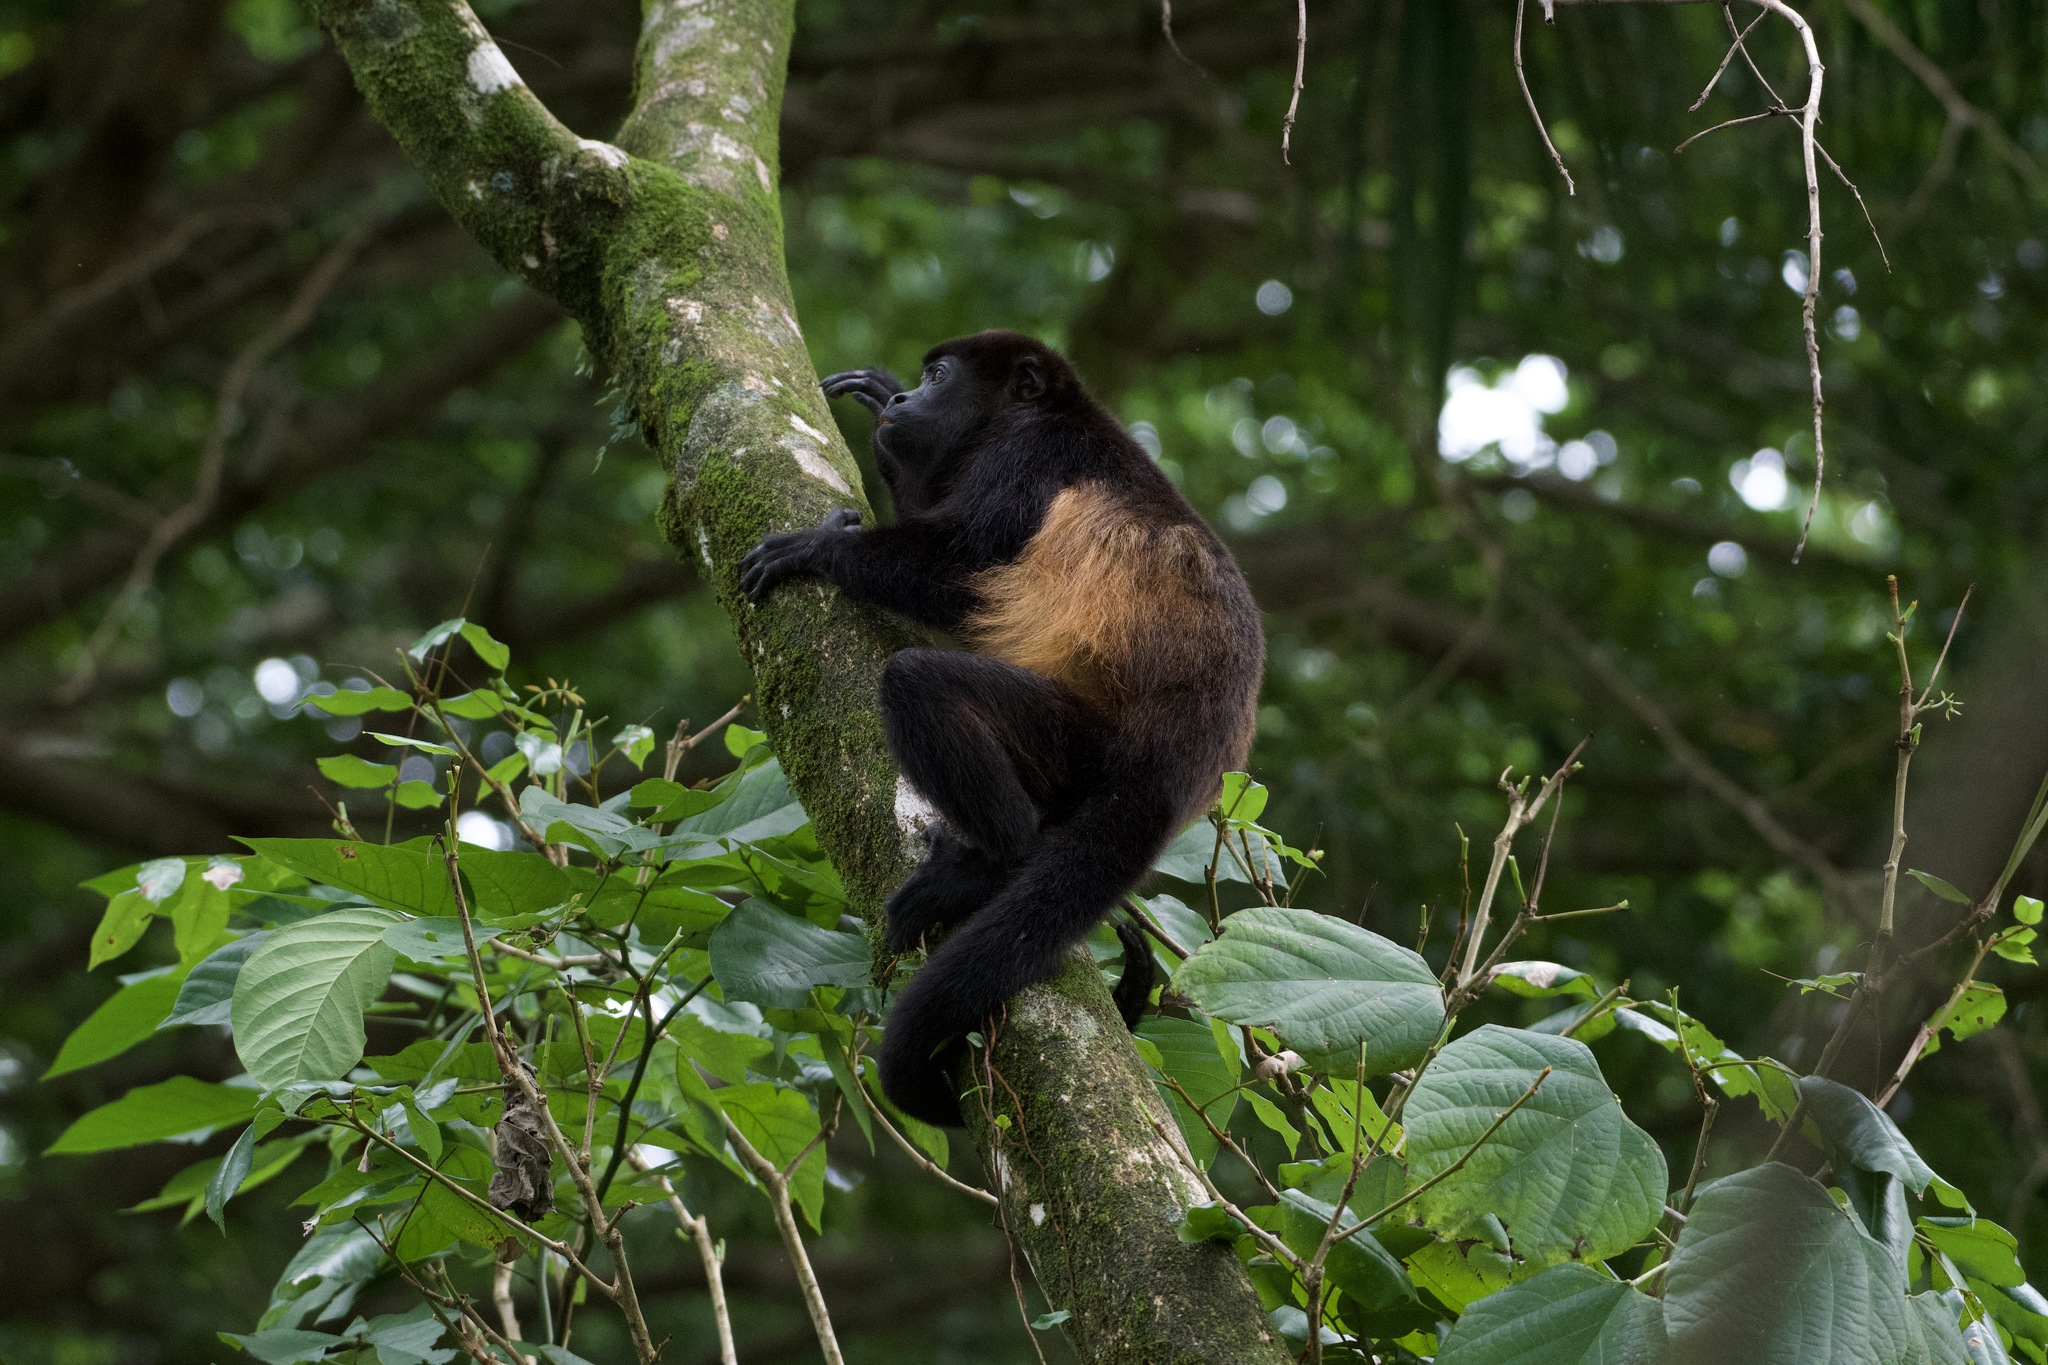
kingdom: Animalia
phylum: Chordata
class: Mammalia
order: Primates
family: Atelidae
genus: Alouatta
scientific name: Alouatta palliata
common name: Mantled howler
